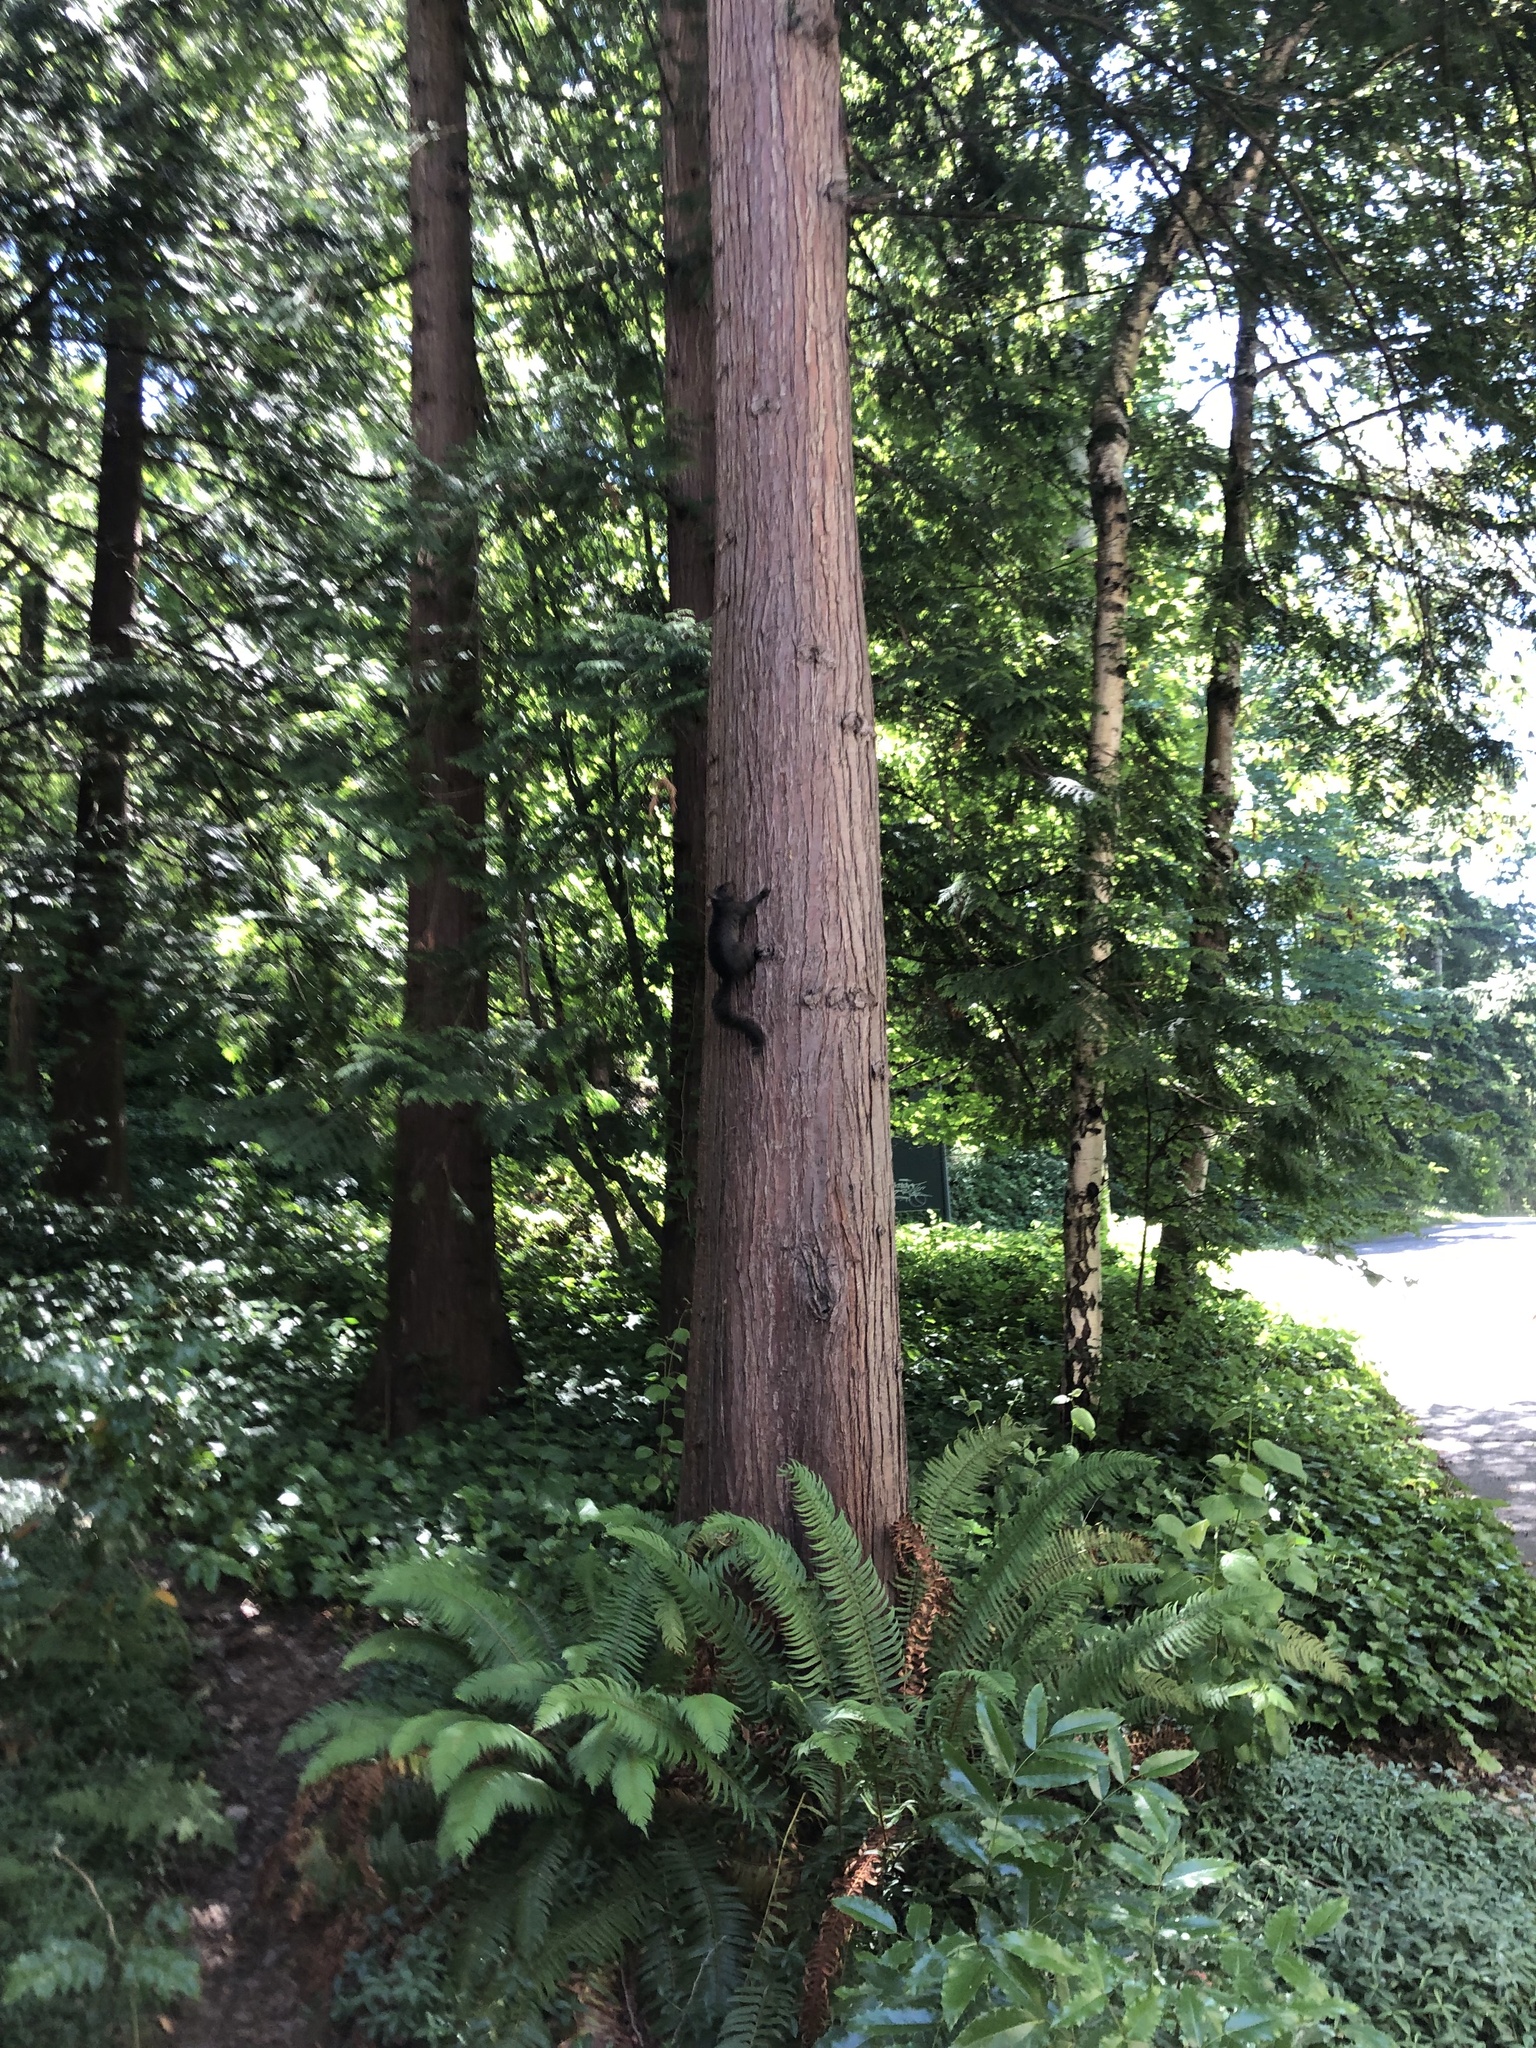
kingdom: Animalia
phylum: Chordata
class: Mammalia
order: Rodentia
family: Sciuridae
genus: Sciurus
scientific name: Sciurus carolinensis
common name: Eastern gray squirrel
